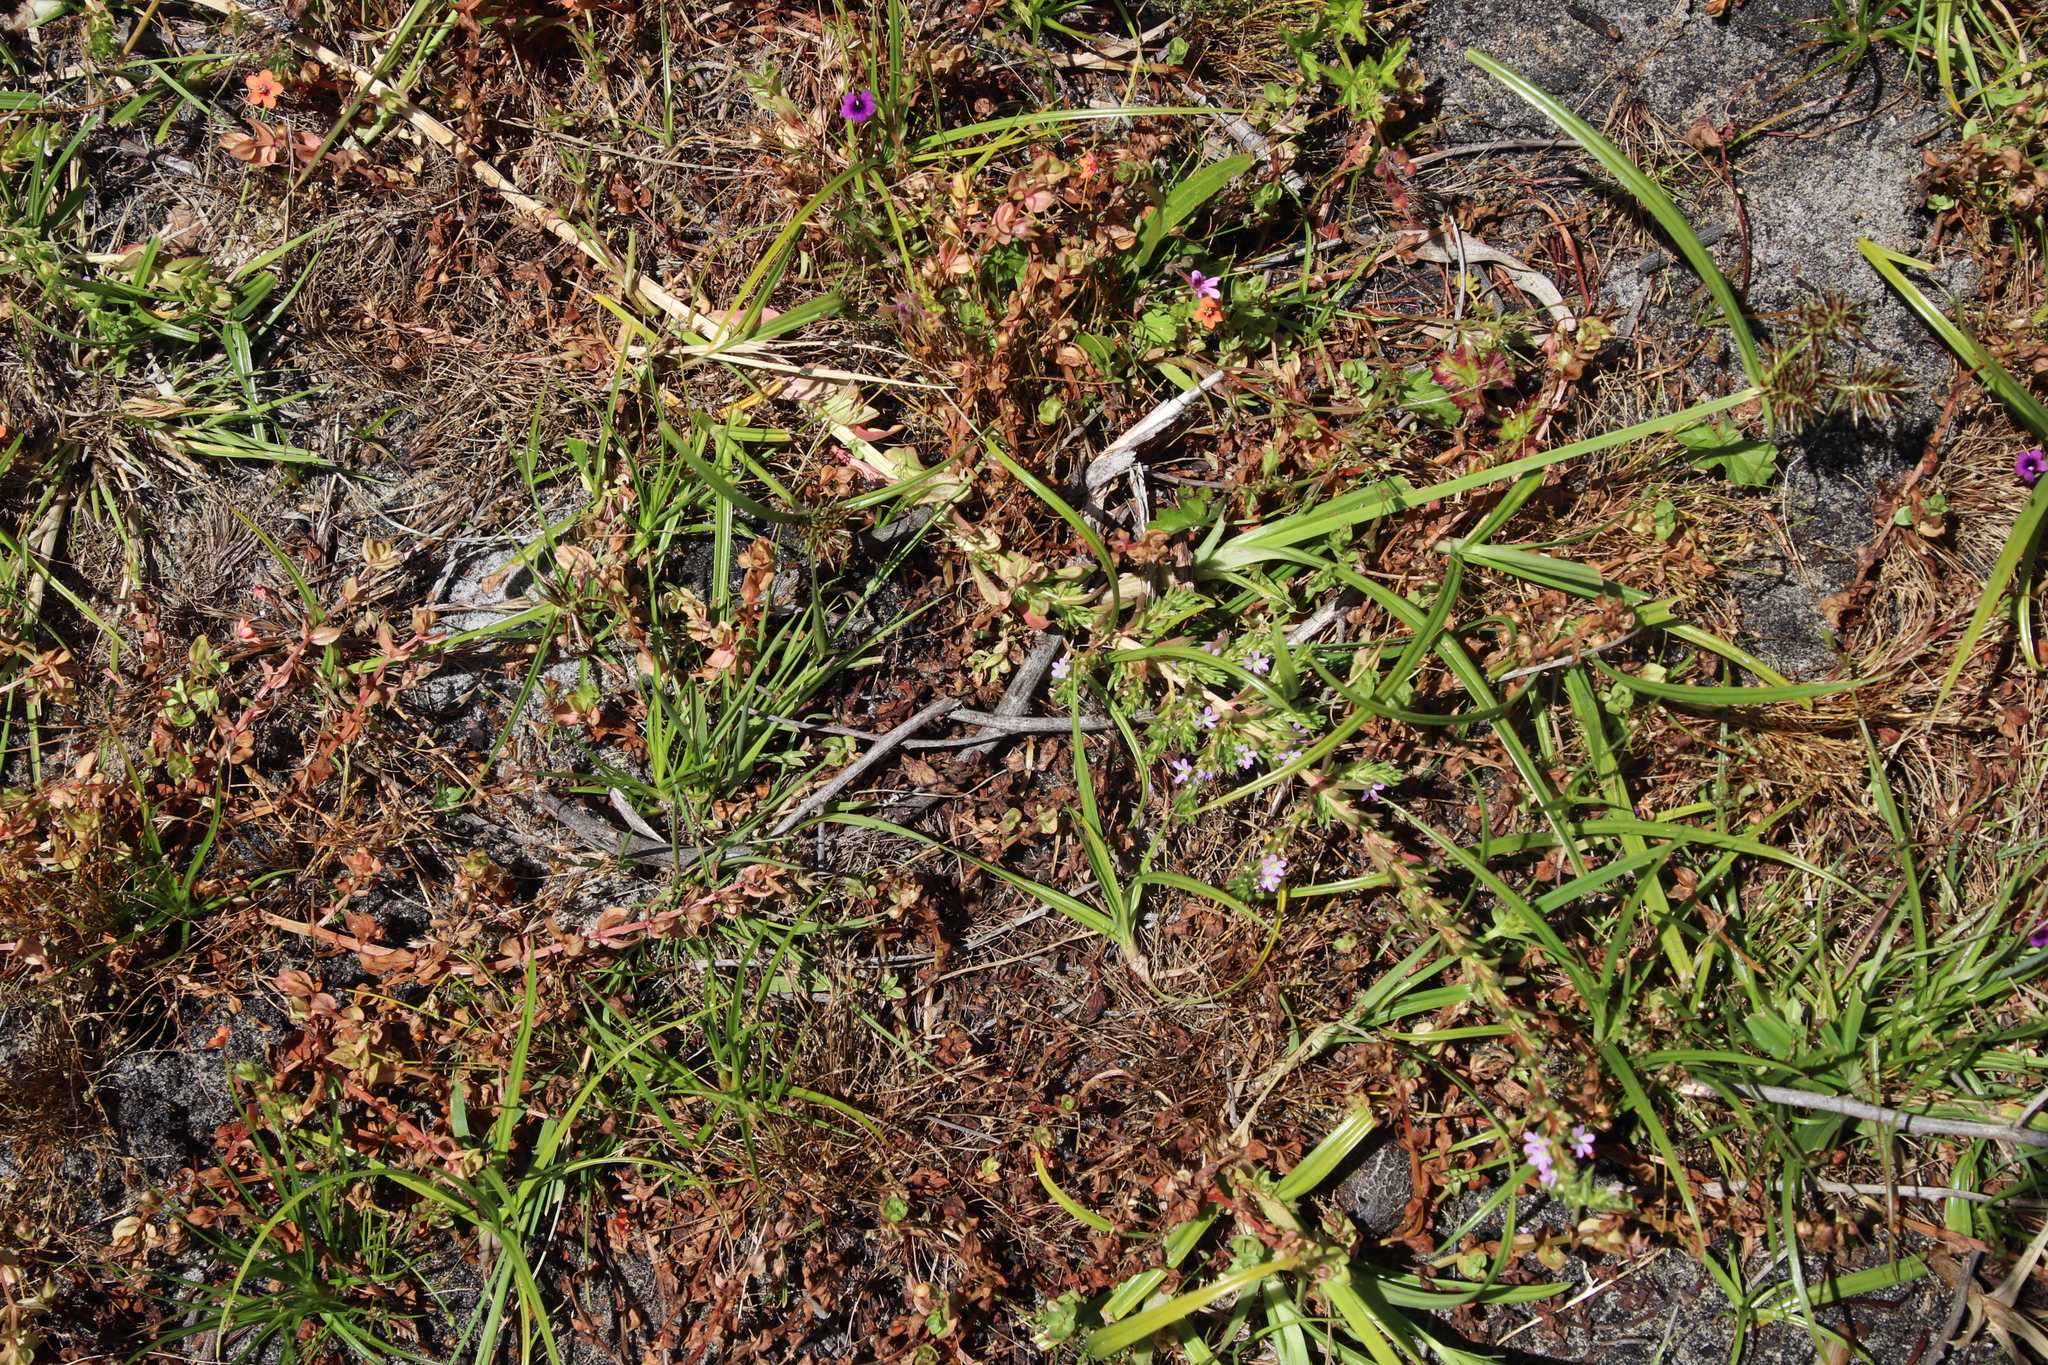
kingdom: Plantae
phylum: Tracheophyta
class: Magnoliopsida
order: Myrtales
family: Lythraceae
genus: Lythrum
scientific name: Lythrum hyssopifolia
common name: Grass-poly
